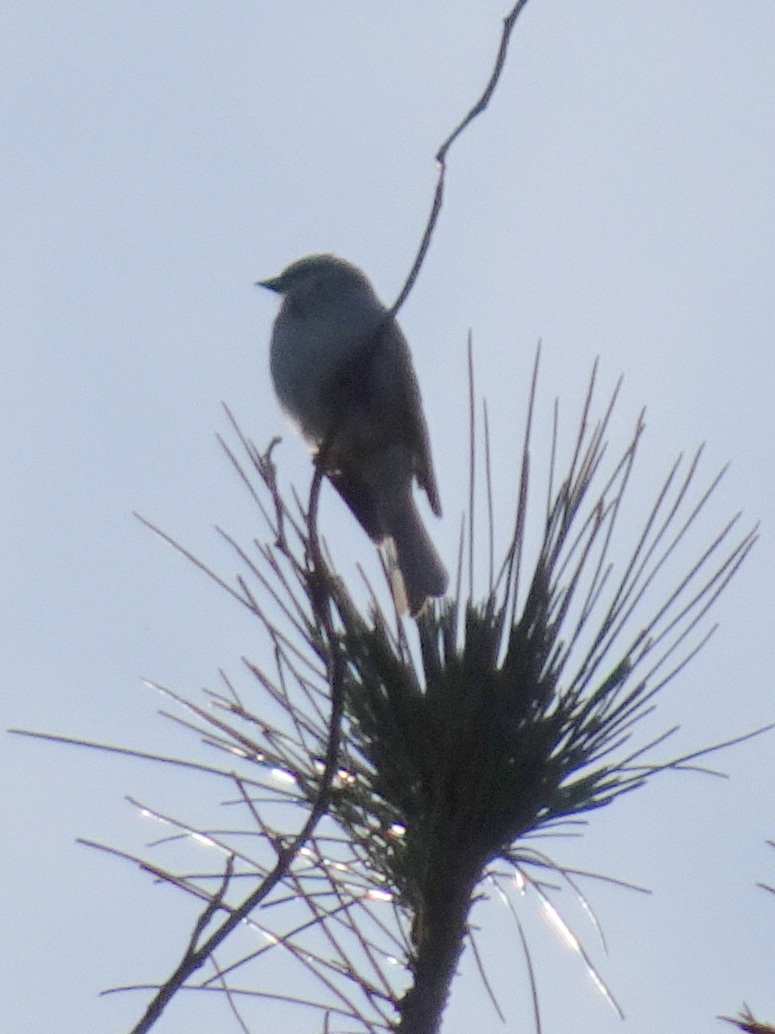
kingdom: Animalia
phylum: Chordata
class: Aves
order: Passeriformes
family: Passerellidae
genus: Spizella
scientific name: Spizella passerina
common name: Chipping sparrow
